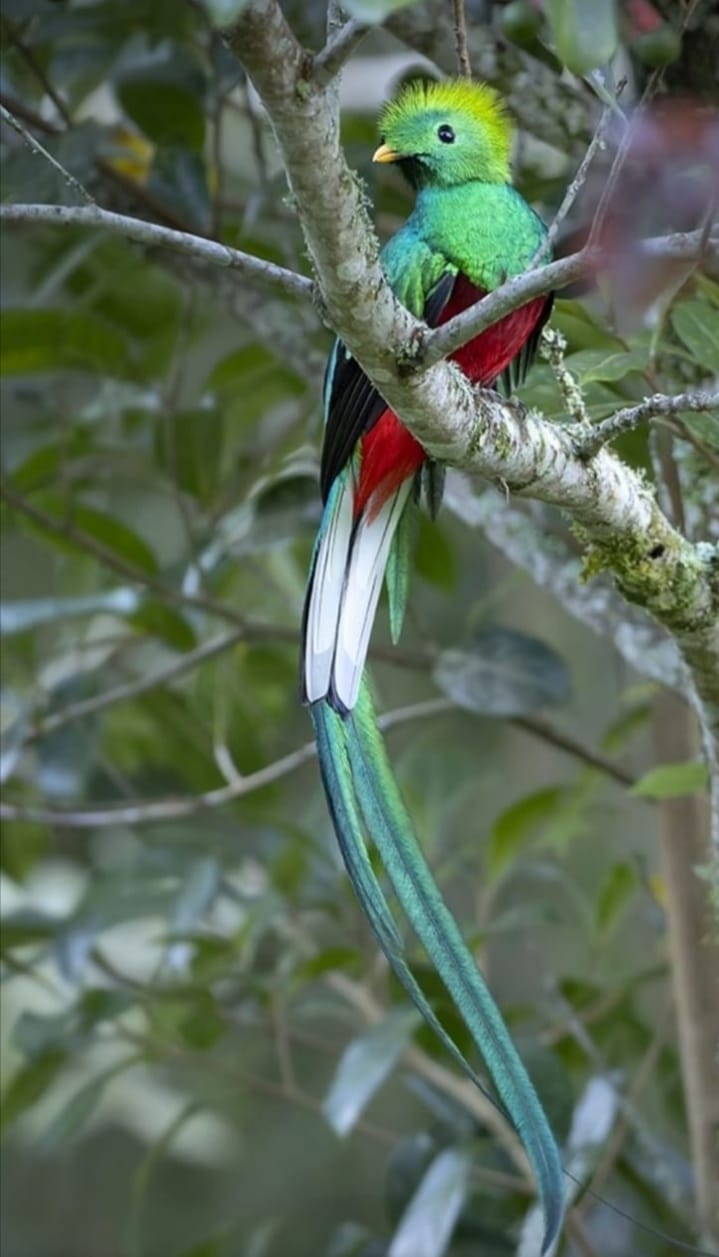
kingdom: Animalia
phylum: Chordata
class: Aves
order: Trogoniformes
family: Trogonidae
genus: Pharomachrus
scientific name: Pharomachrus mocinno
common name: Resplendent quetzal
